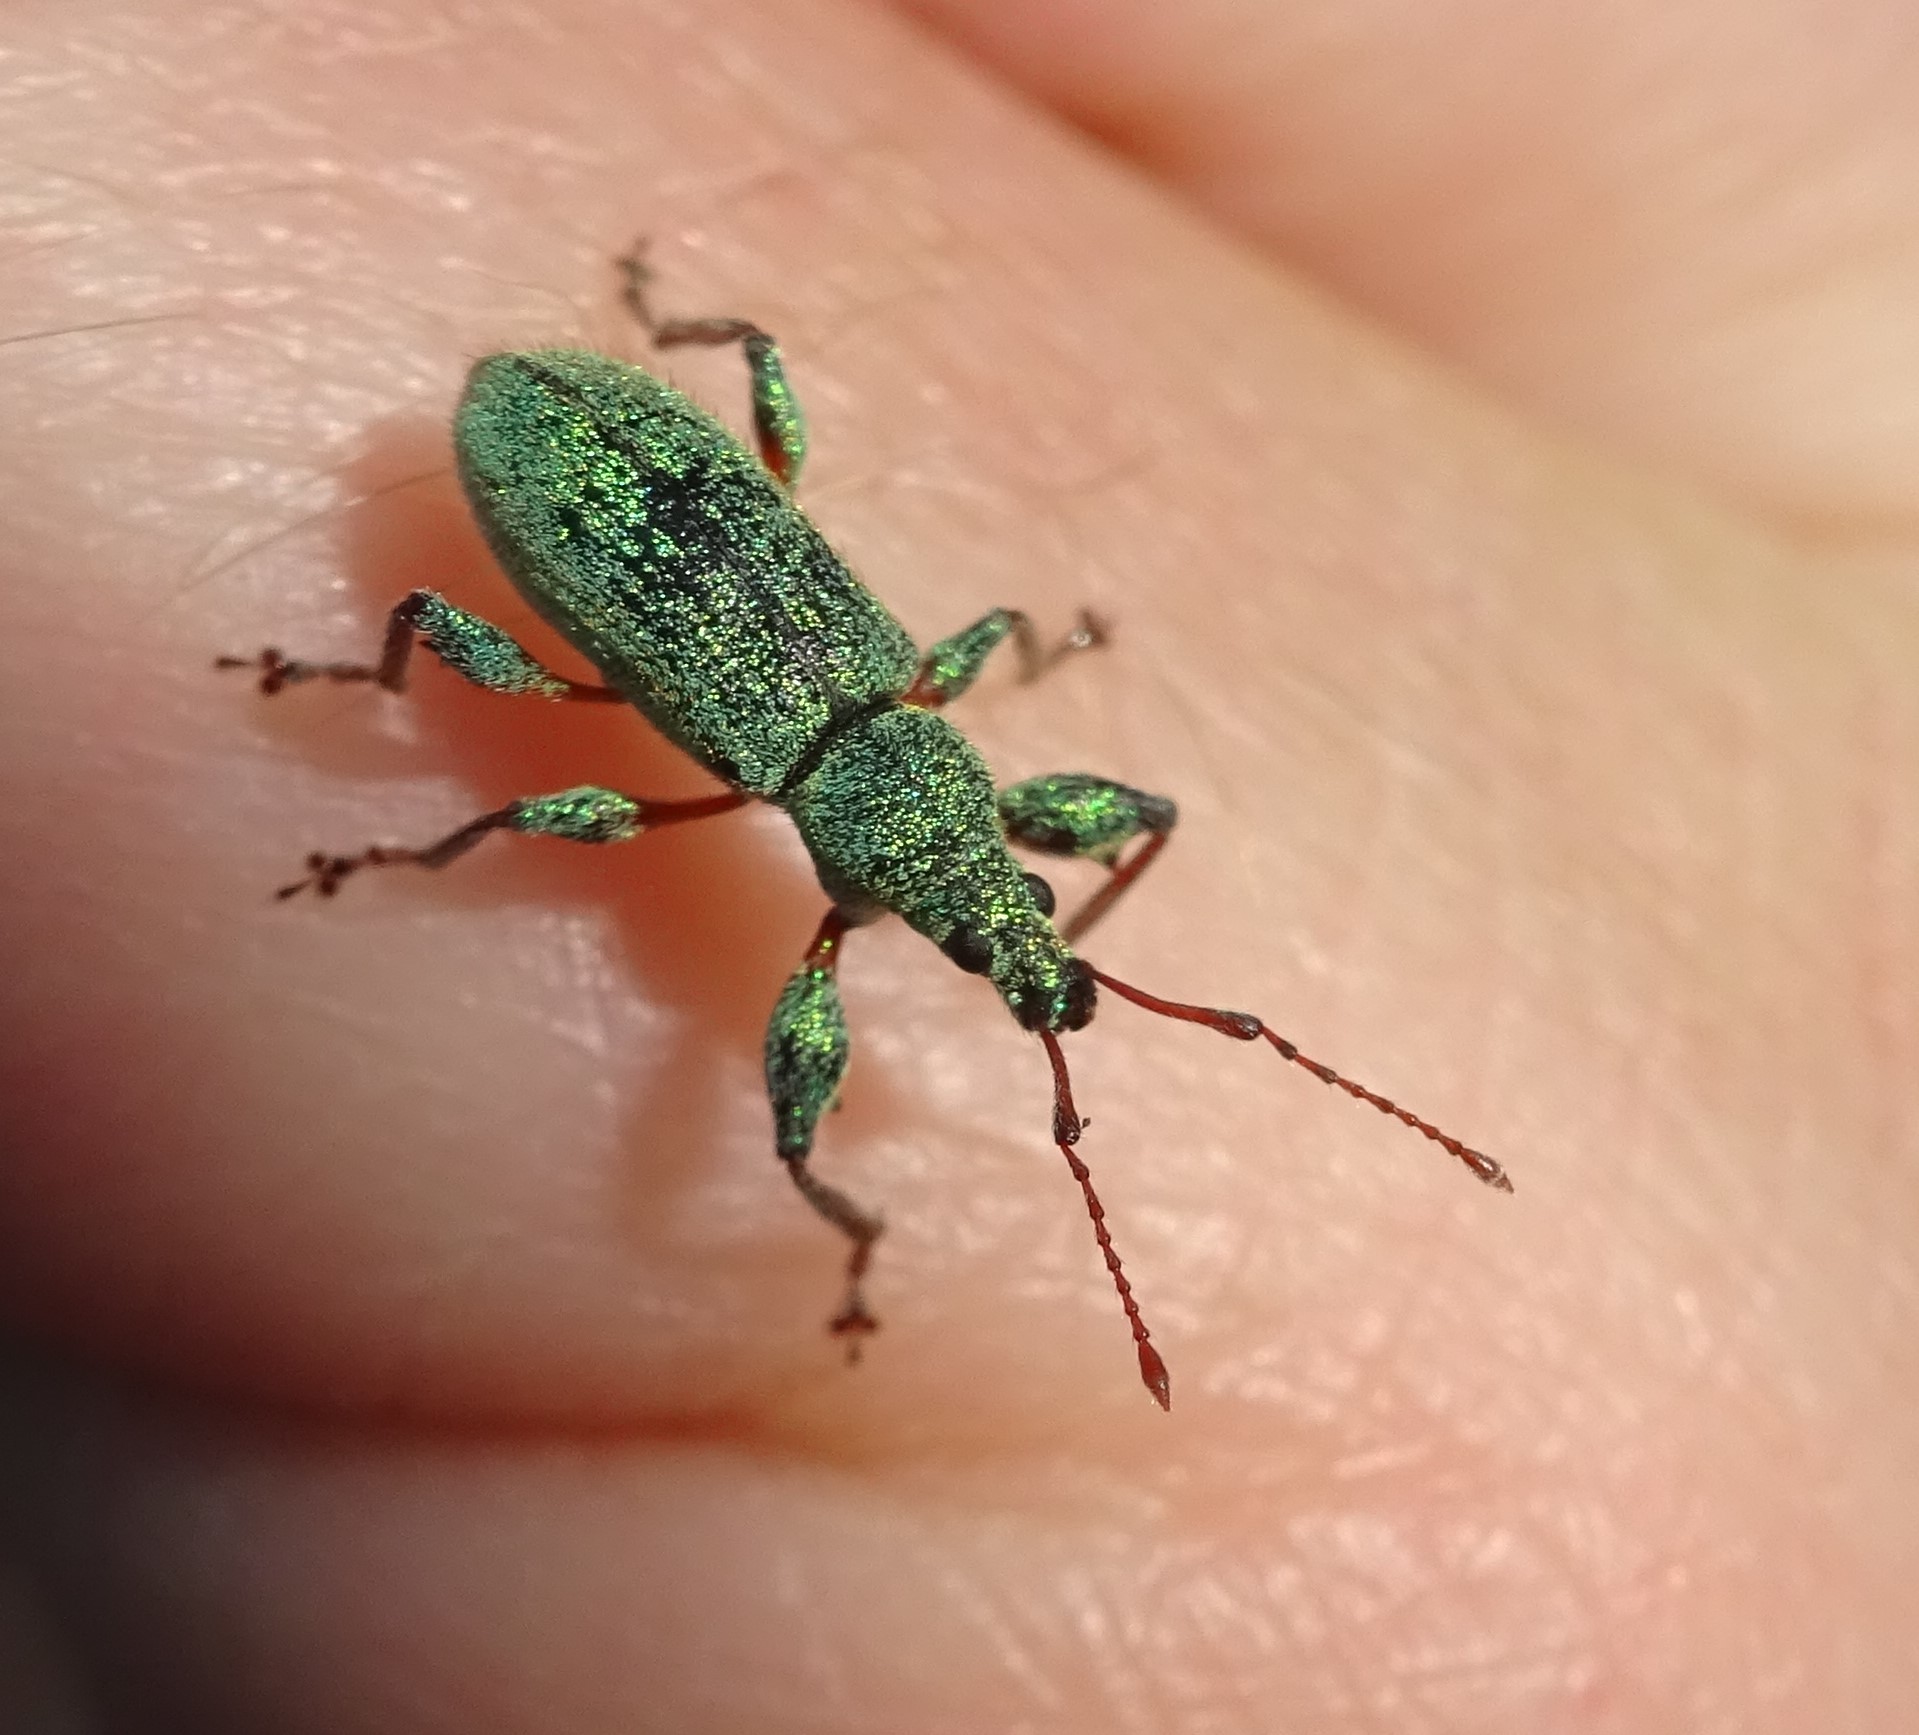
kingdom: Animalia
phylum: Arthropoda
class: Insecta
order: Coleoptera
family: Curculionidae
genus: Phyllobius
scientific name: Phyllobius arborator
